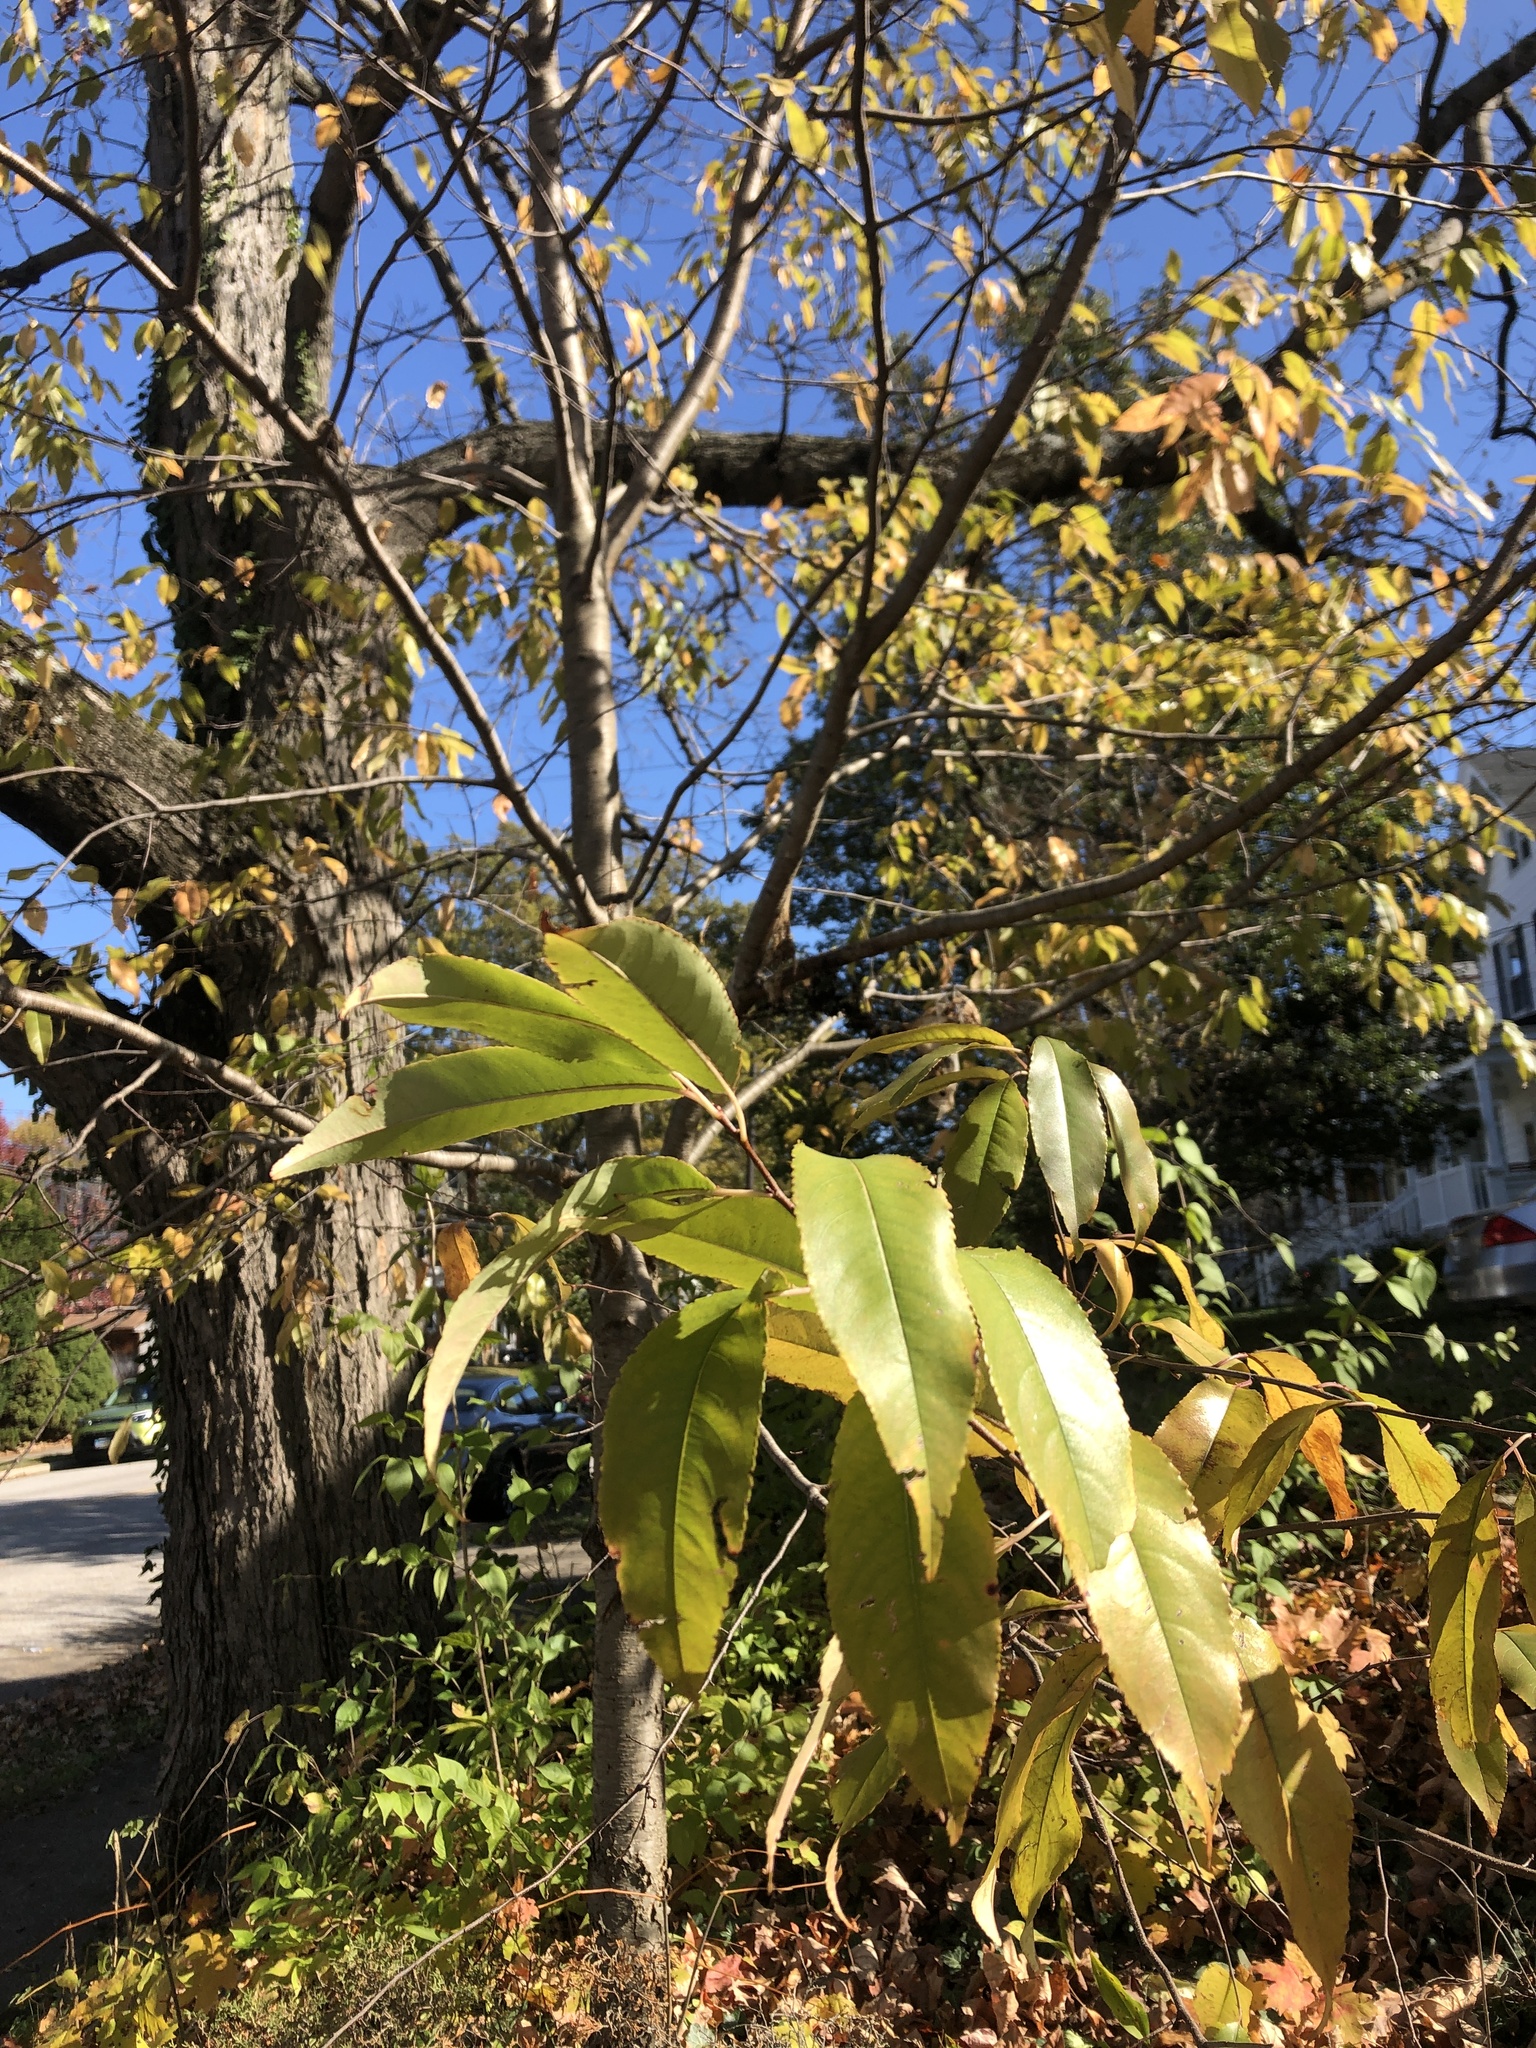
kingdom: Plantae
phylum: Tracheophyta
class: Magnoliopsida
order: Rosales
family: Rosaceae
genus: Prunus
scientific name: Prunus serotina
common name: Black cherry
